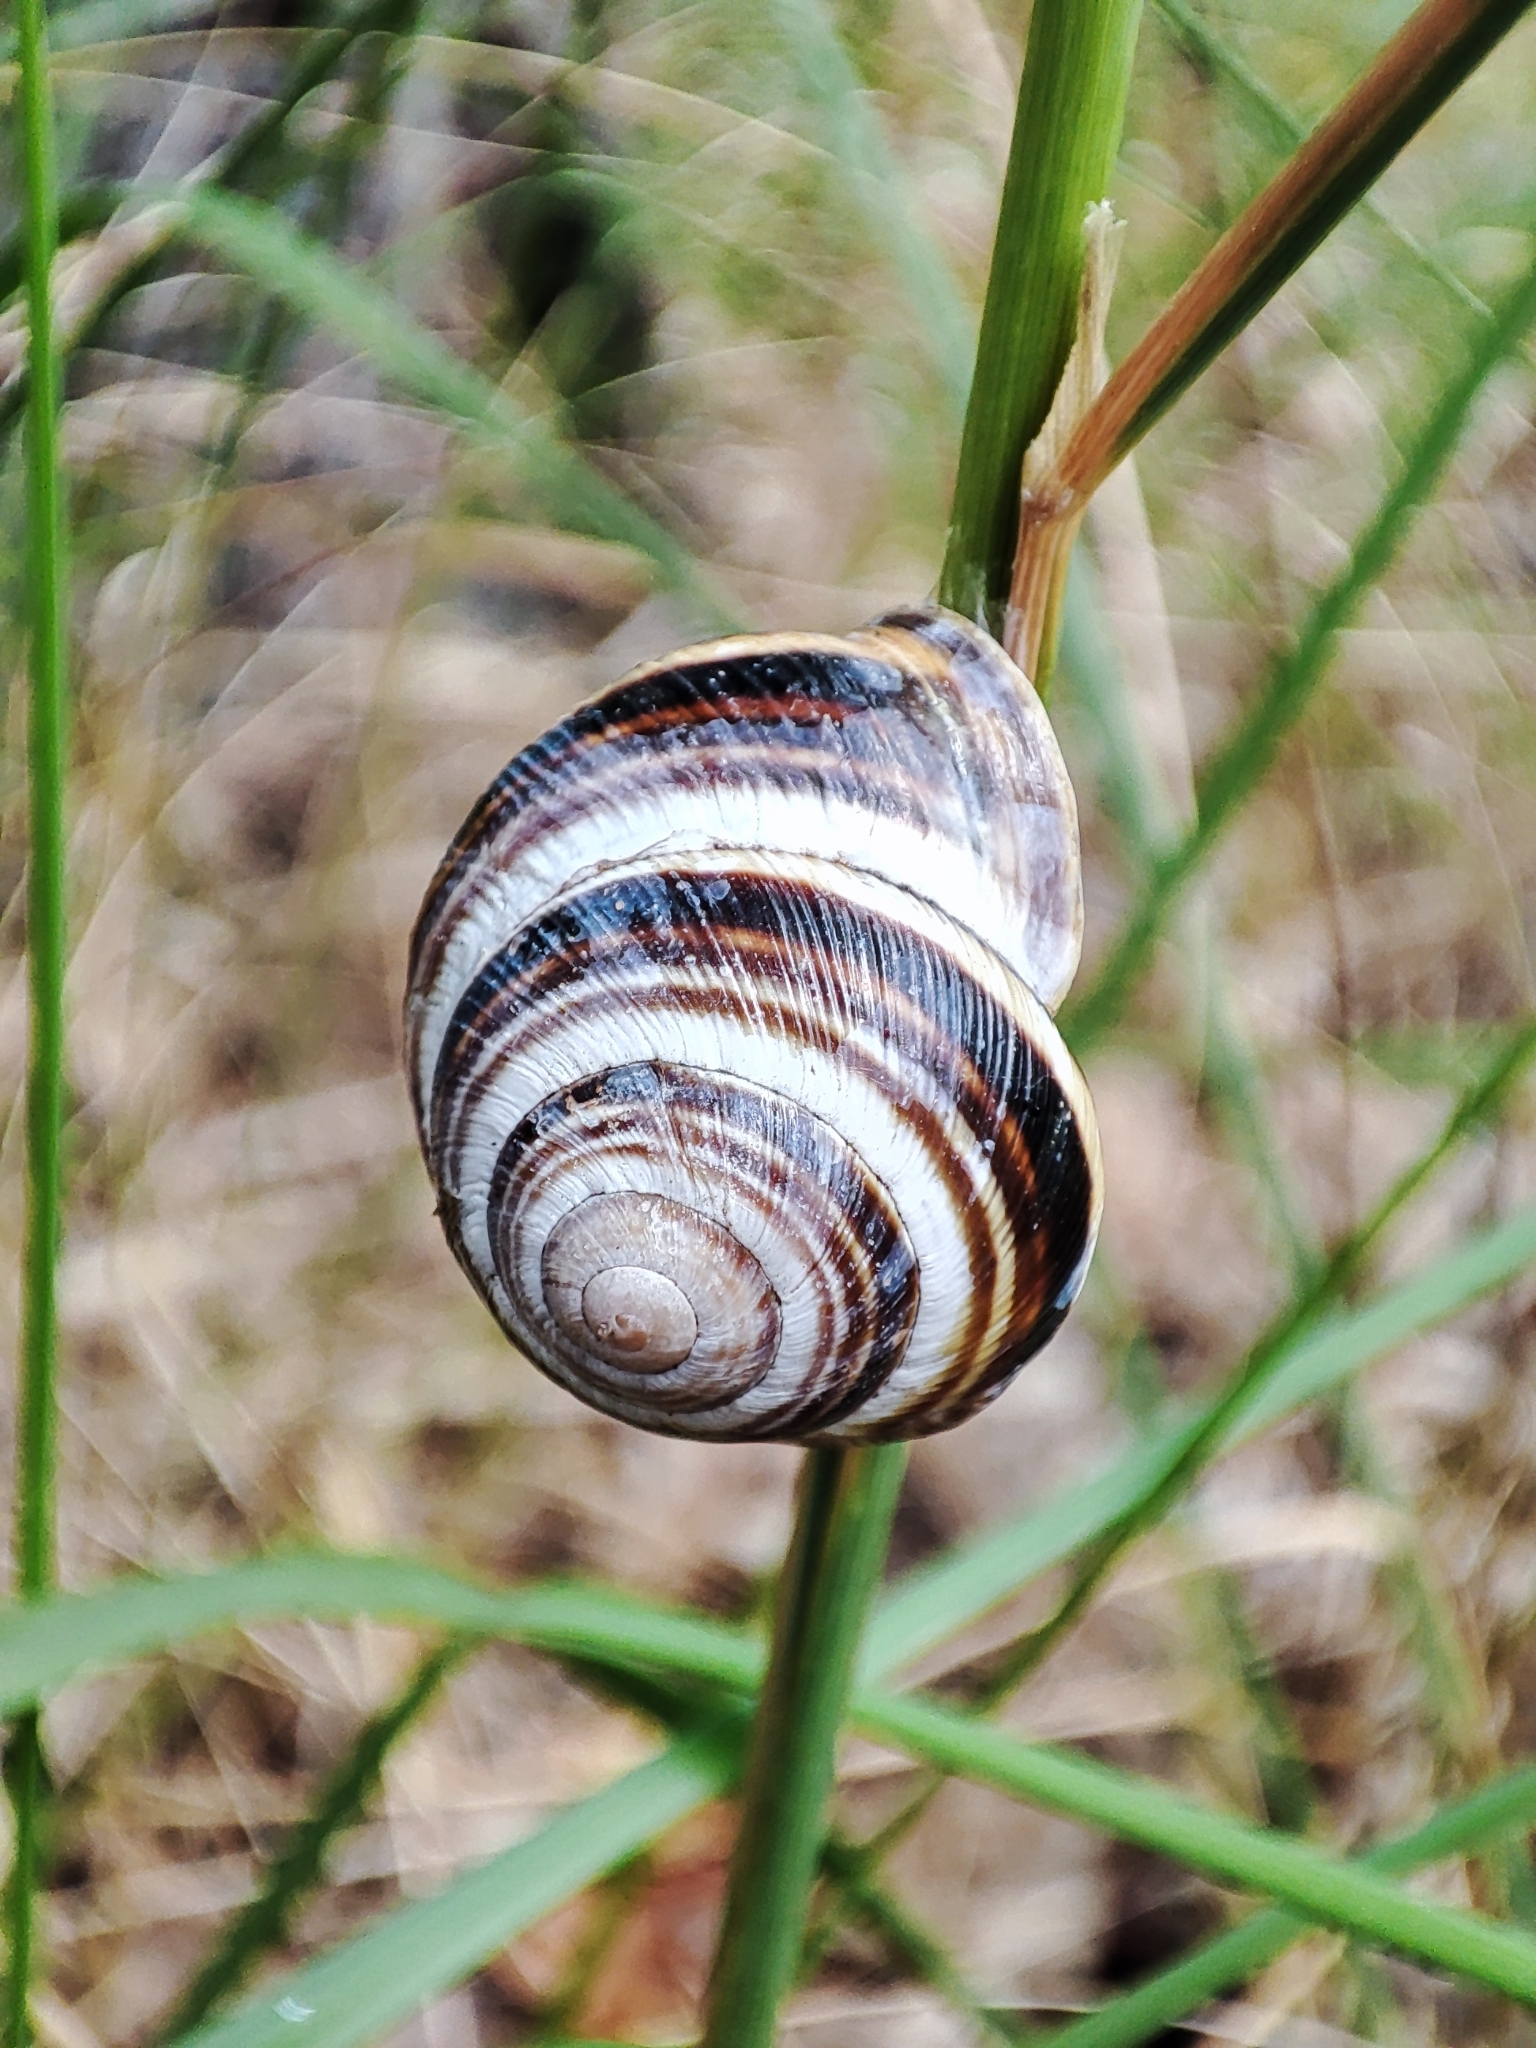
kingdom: Animalia
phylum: Mollusca
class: Gastropoda
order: Stylommatophora
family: Helicidae
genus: Caucasotachea
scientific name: Caucasotachea vindobonensis
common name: European helicid land snail
